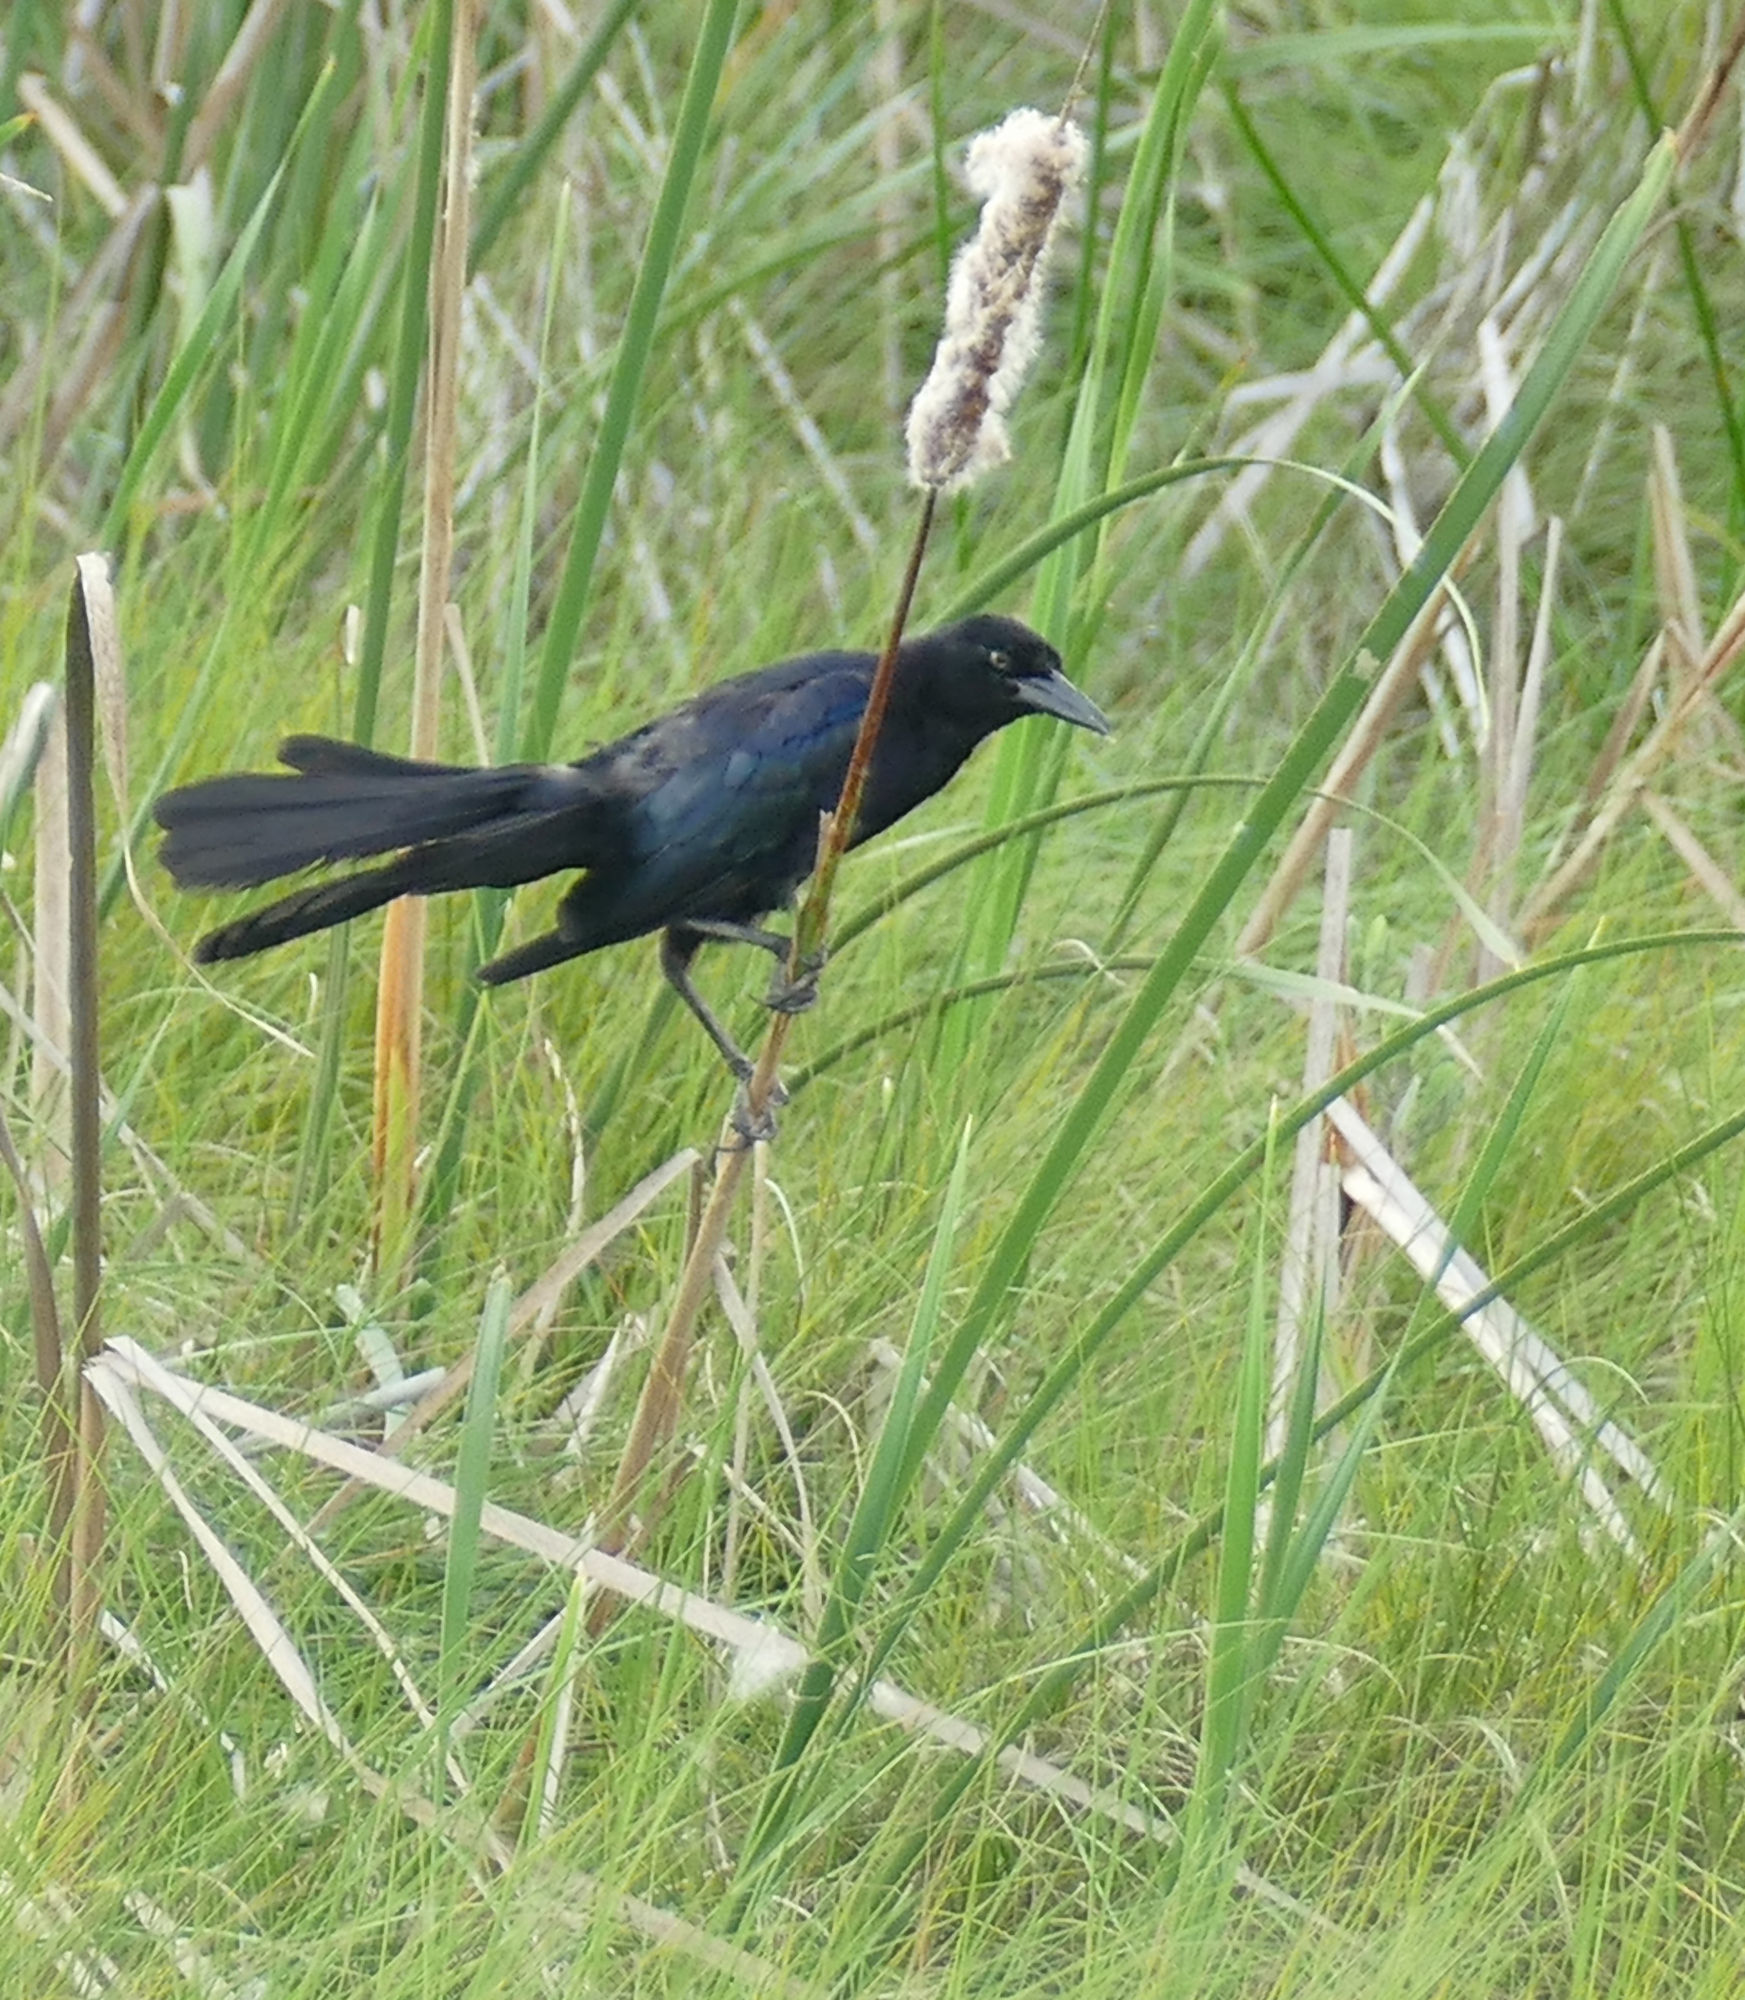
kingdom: Animalia
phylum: Chordata
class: Aves
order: Passeriformes
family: Icteridae
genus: Quiscalus
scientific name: Quiscalus major
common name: Boat-tailed grackle
